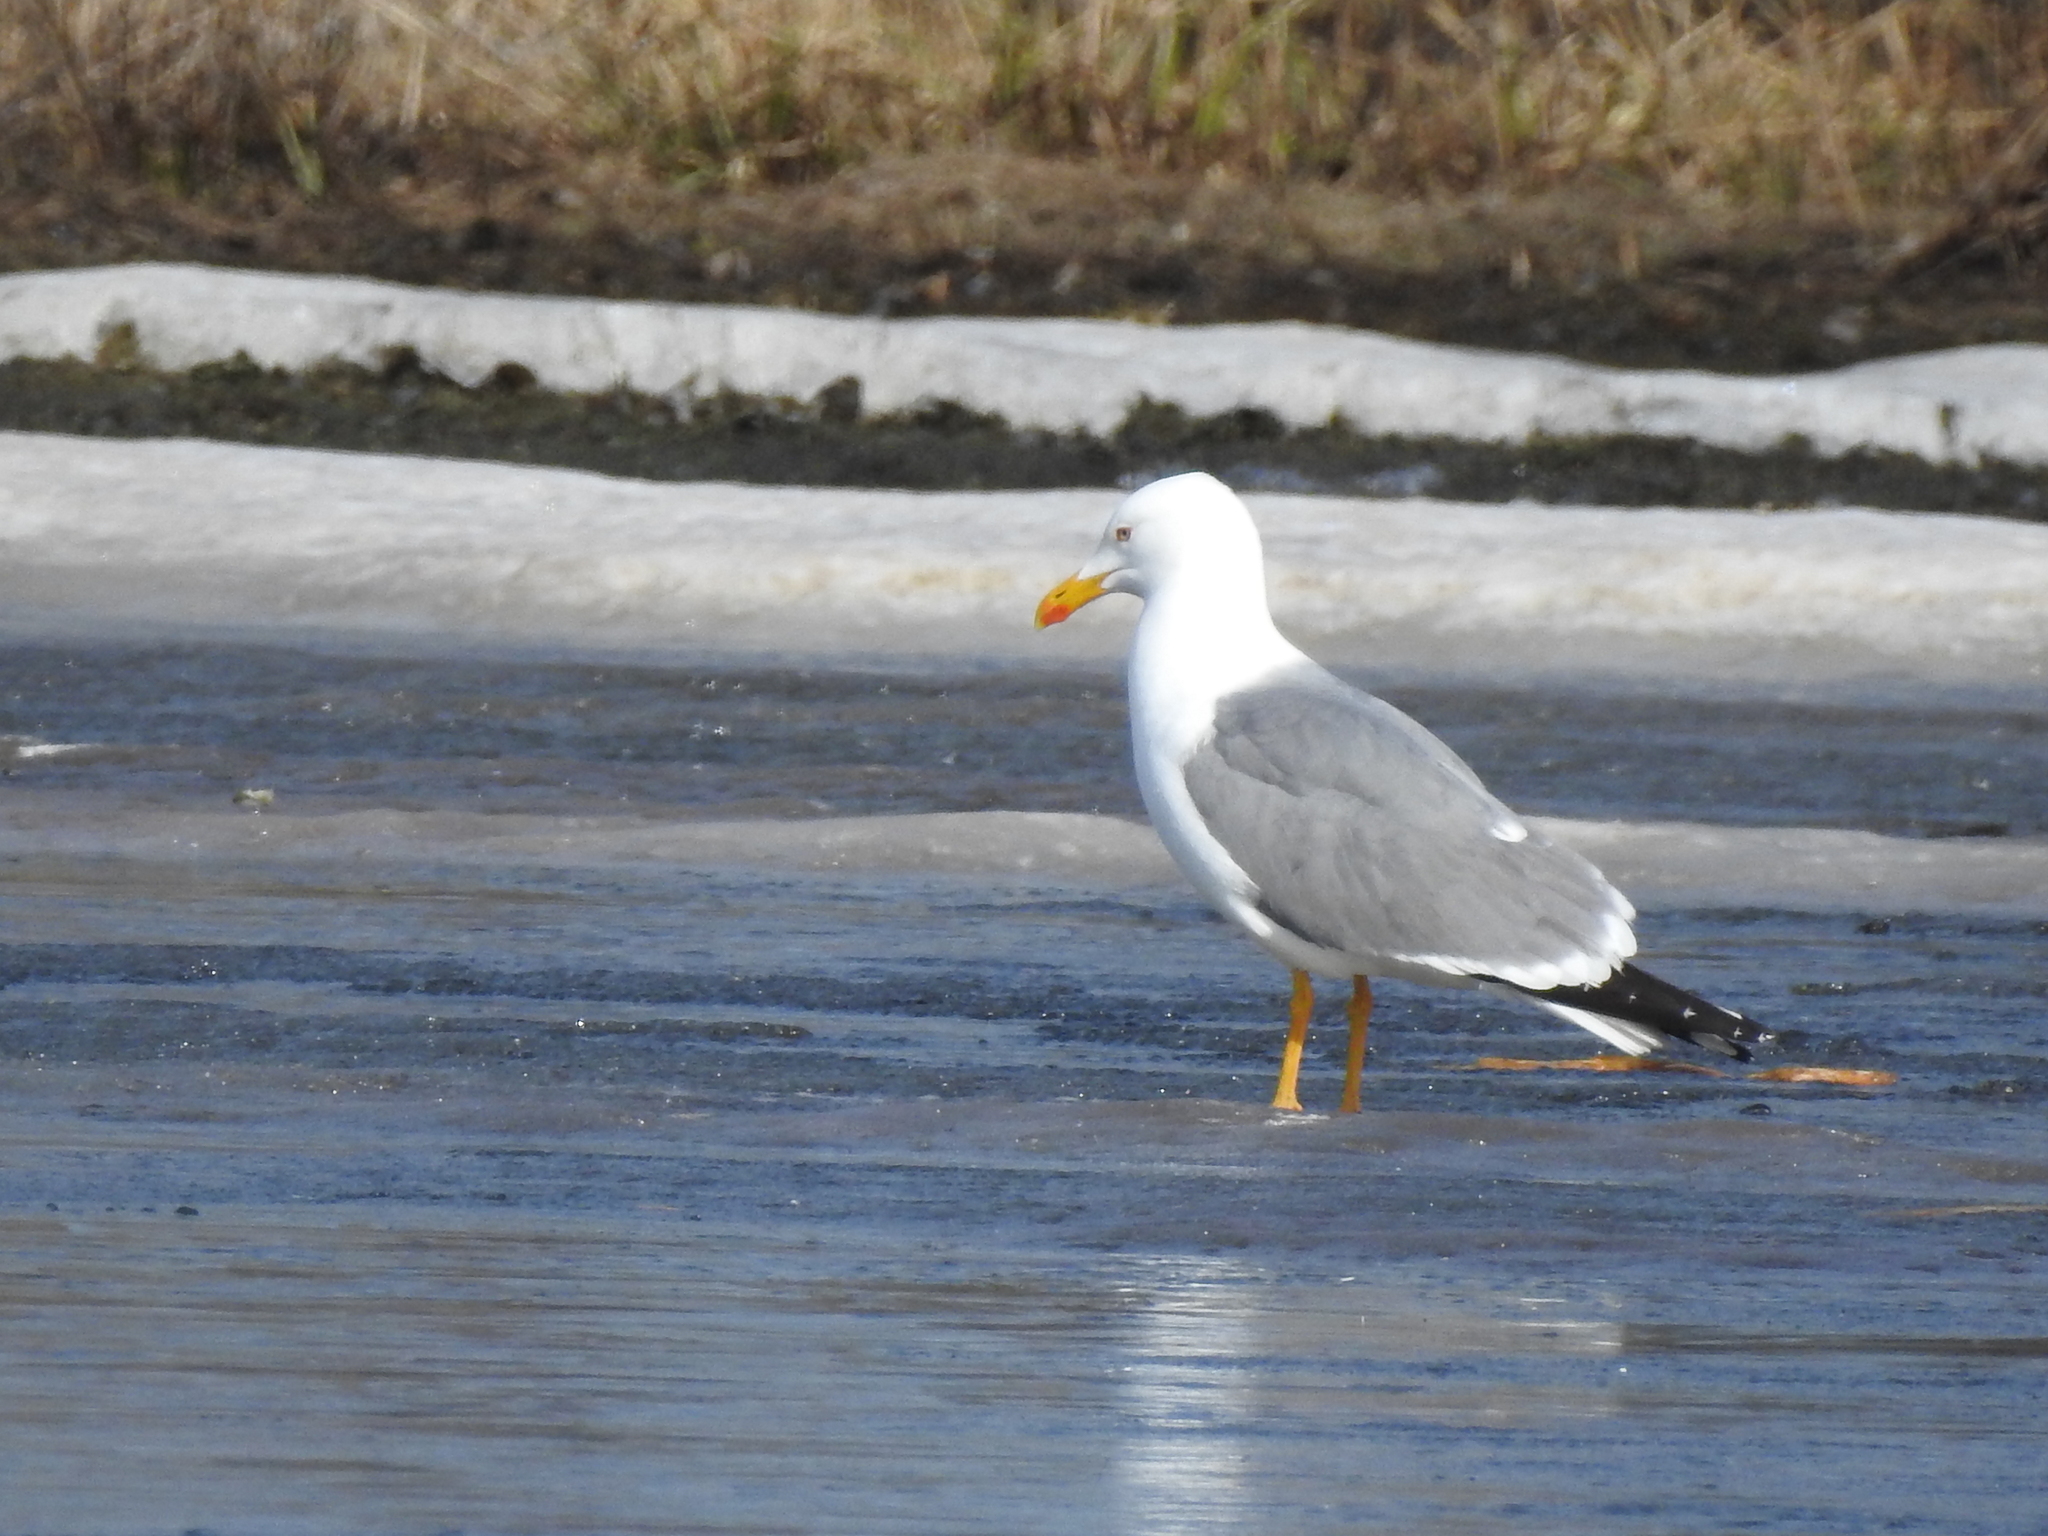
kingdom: Animalia
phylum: Chordata
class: Aves
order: Charadriiformes
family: Laridae
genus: Larus
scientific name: Larus fuscus
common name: Lesser black-backed gull
